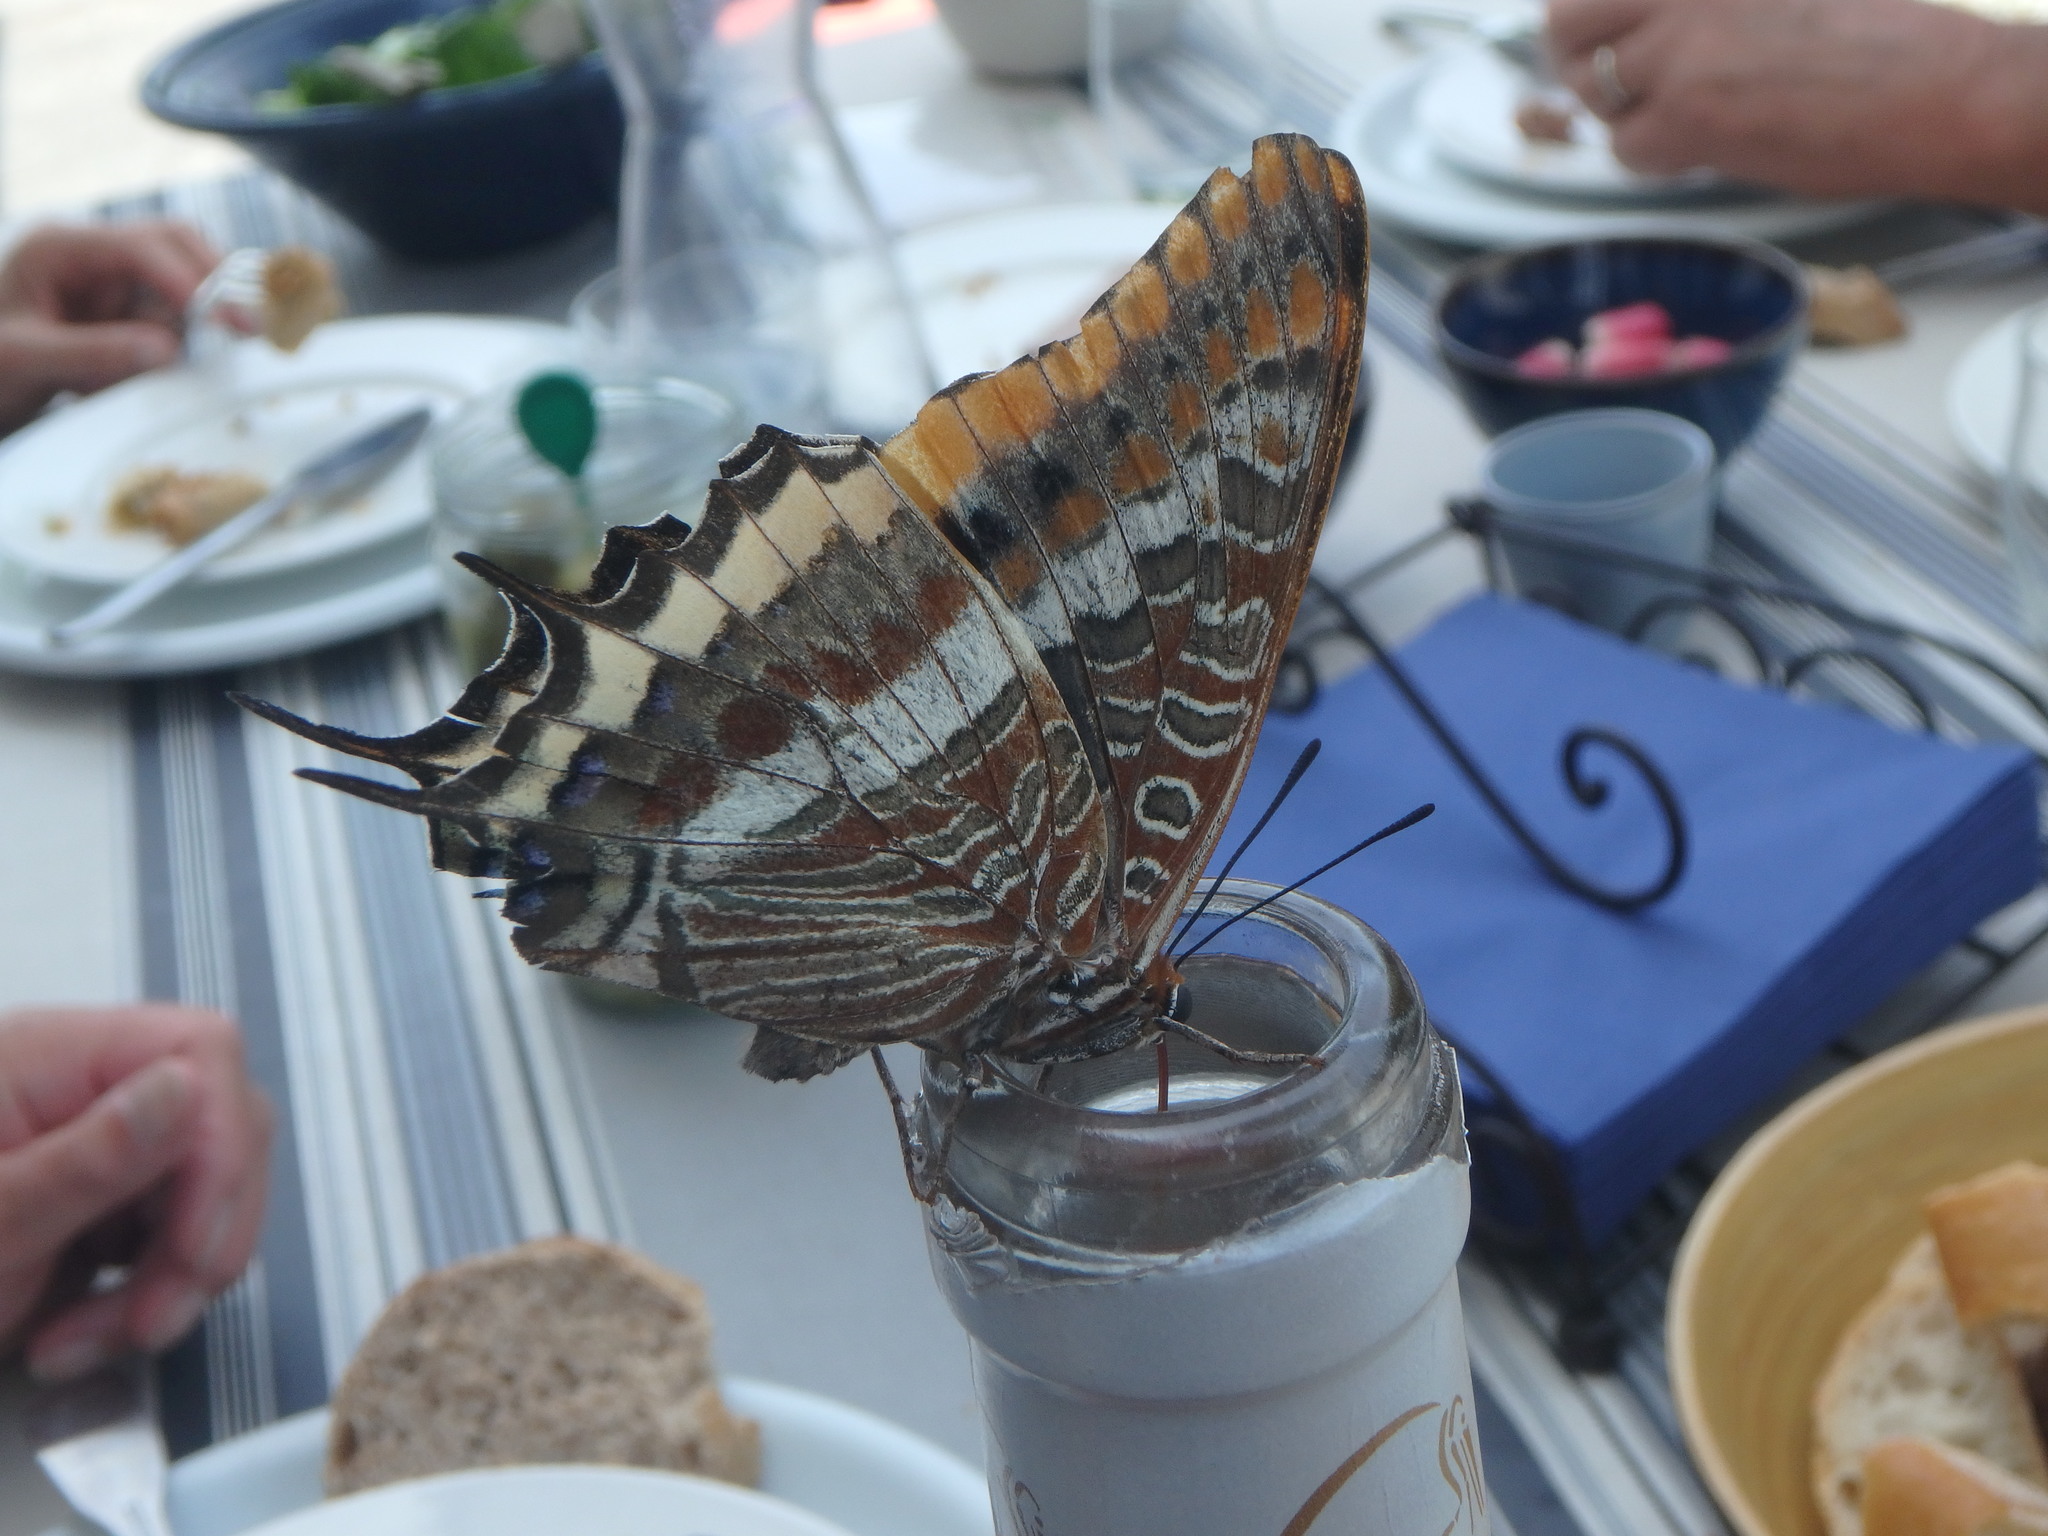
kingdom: Animalia
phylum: Arthropoda
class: Insecta
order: Lepidoptera
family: Nymphalidae
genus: Charaxes
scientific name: Charaxes jasius
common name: Two tailed pasha
